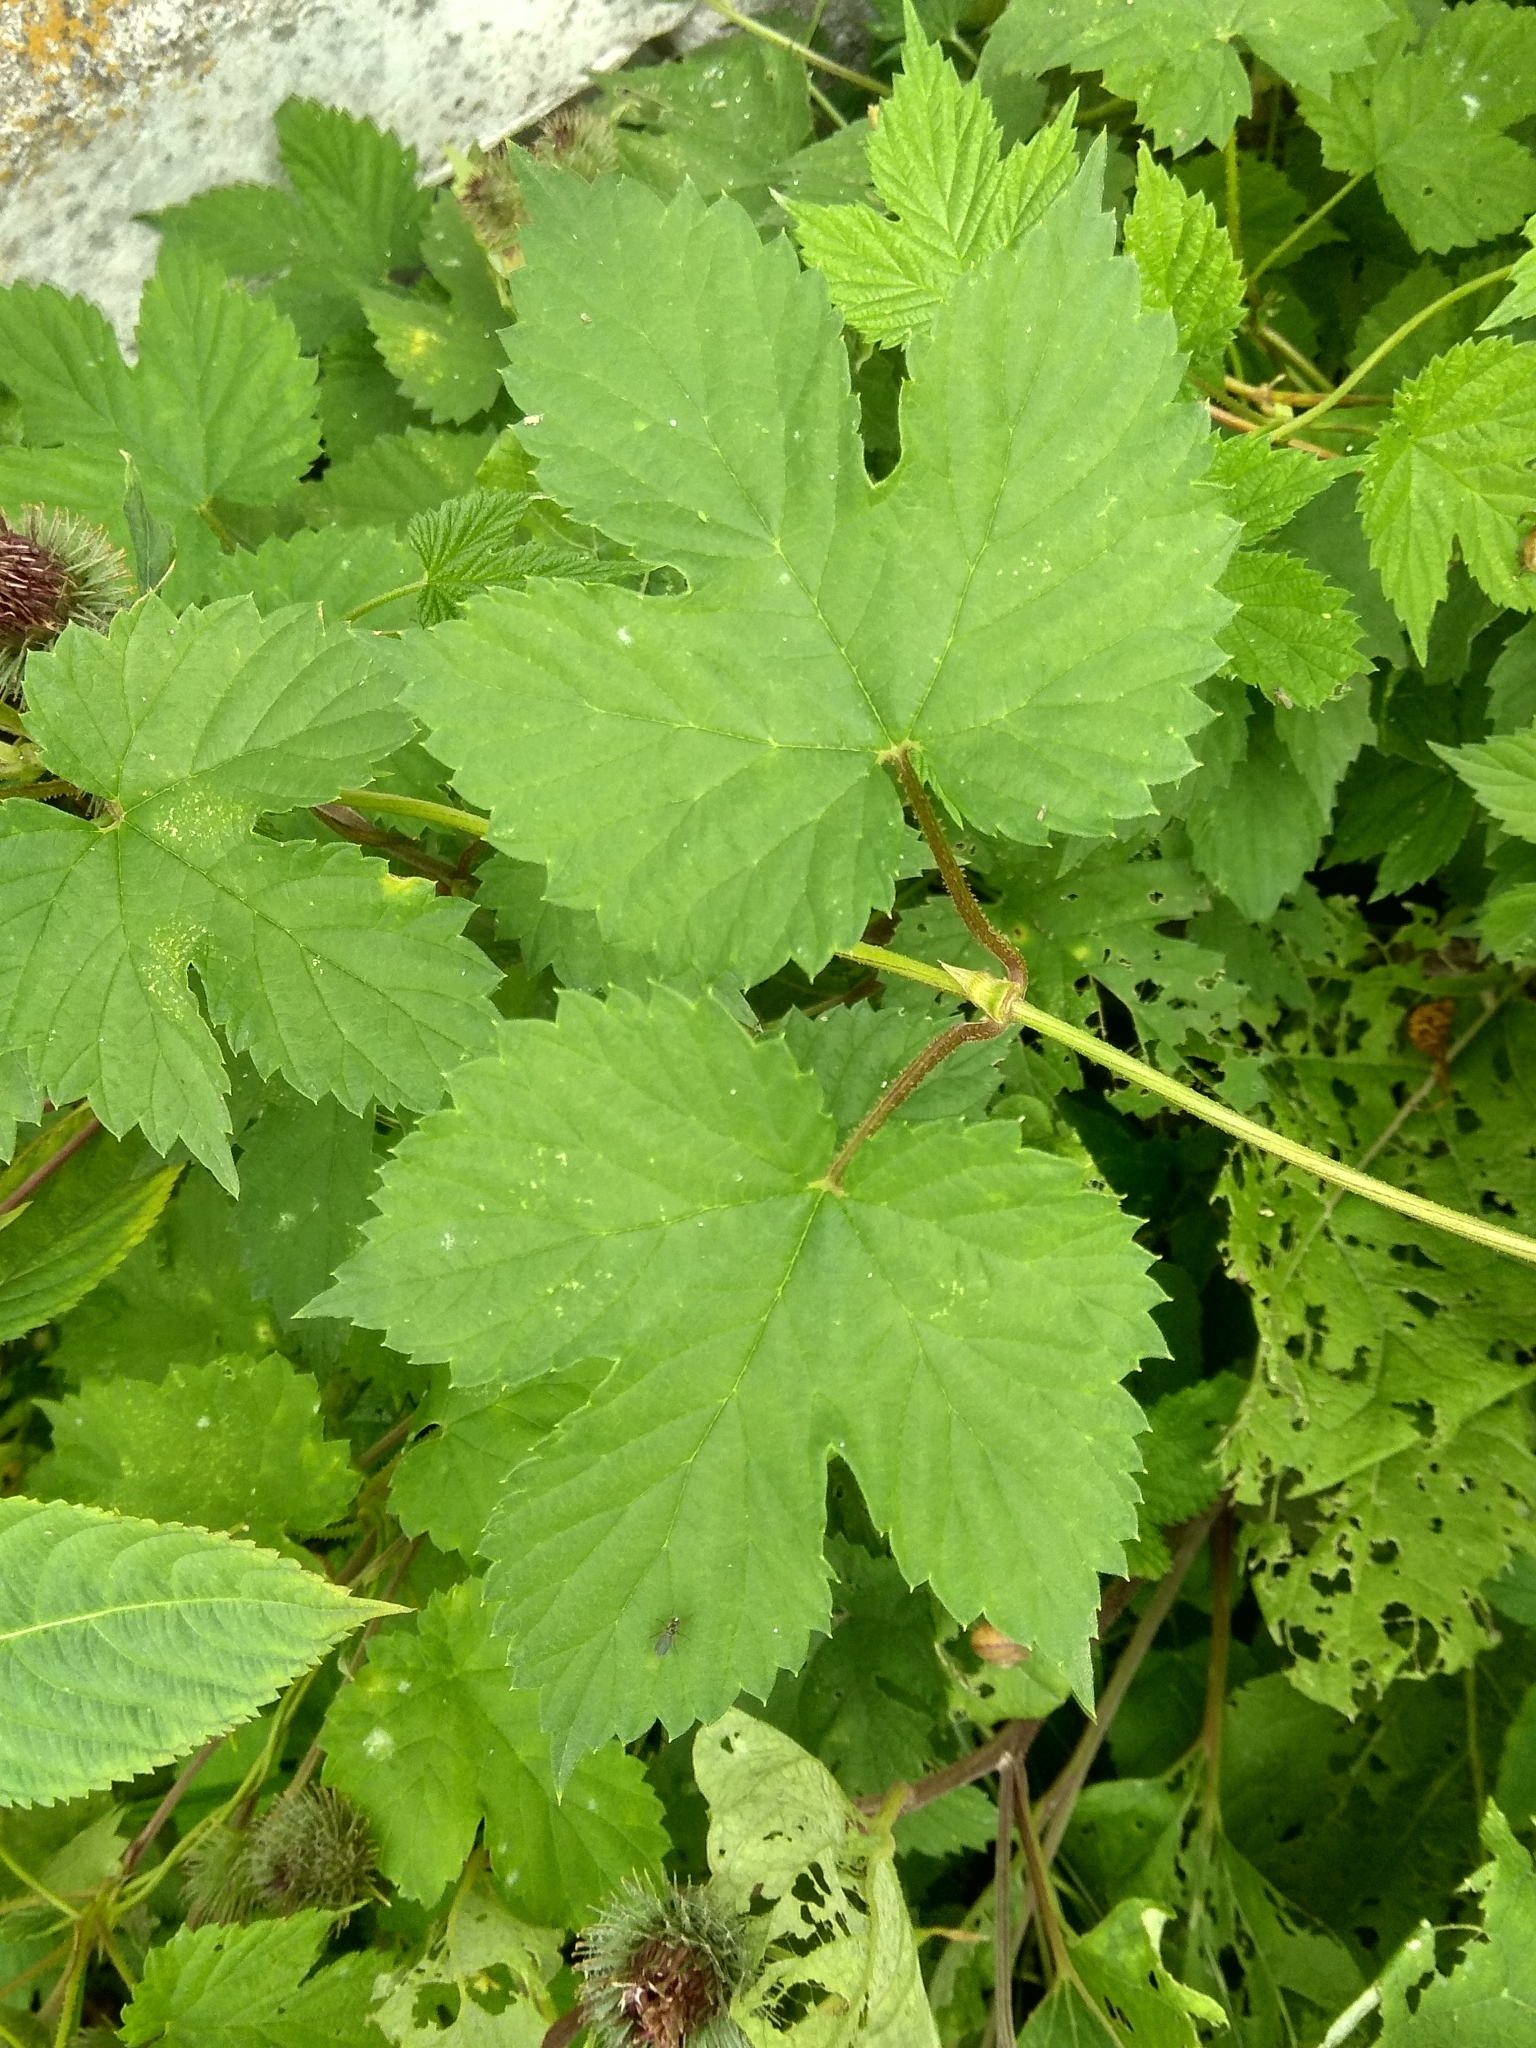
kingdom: Plantae
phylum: Tracheophyta
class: Magnoliopsida
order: Rosales
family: Cannabaceae
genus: Humulus
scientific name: Humulus lupulus
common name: Hop
